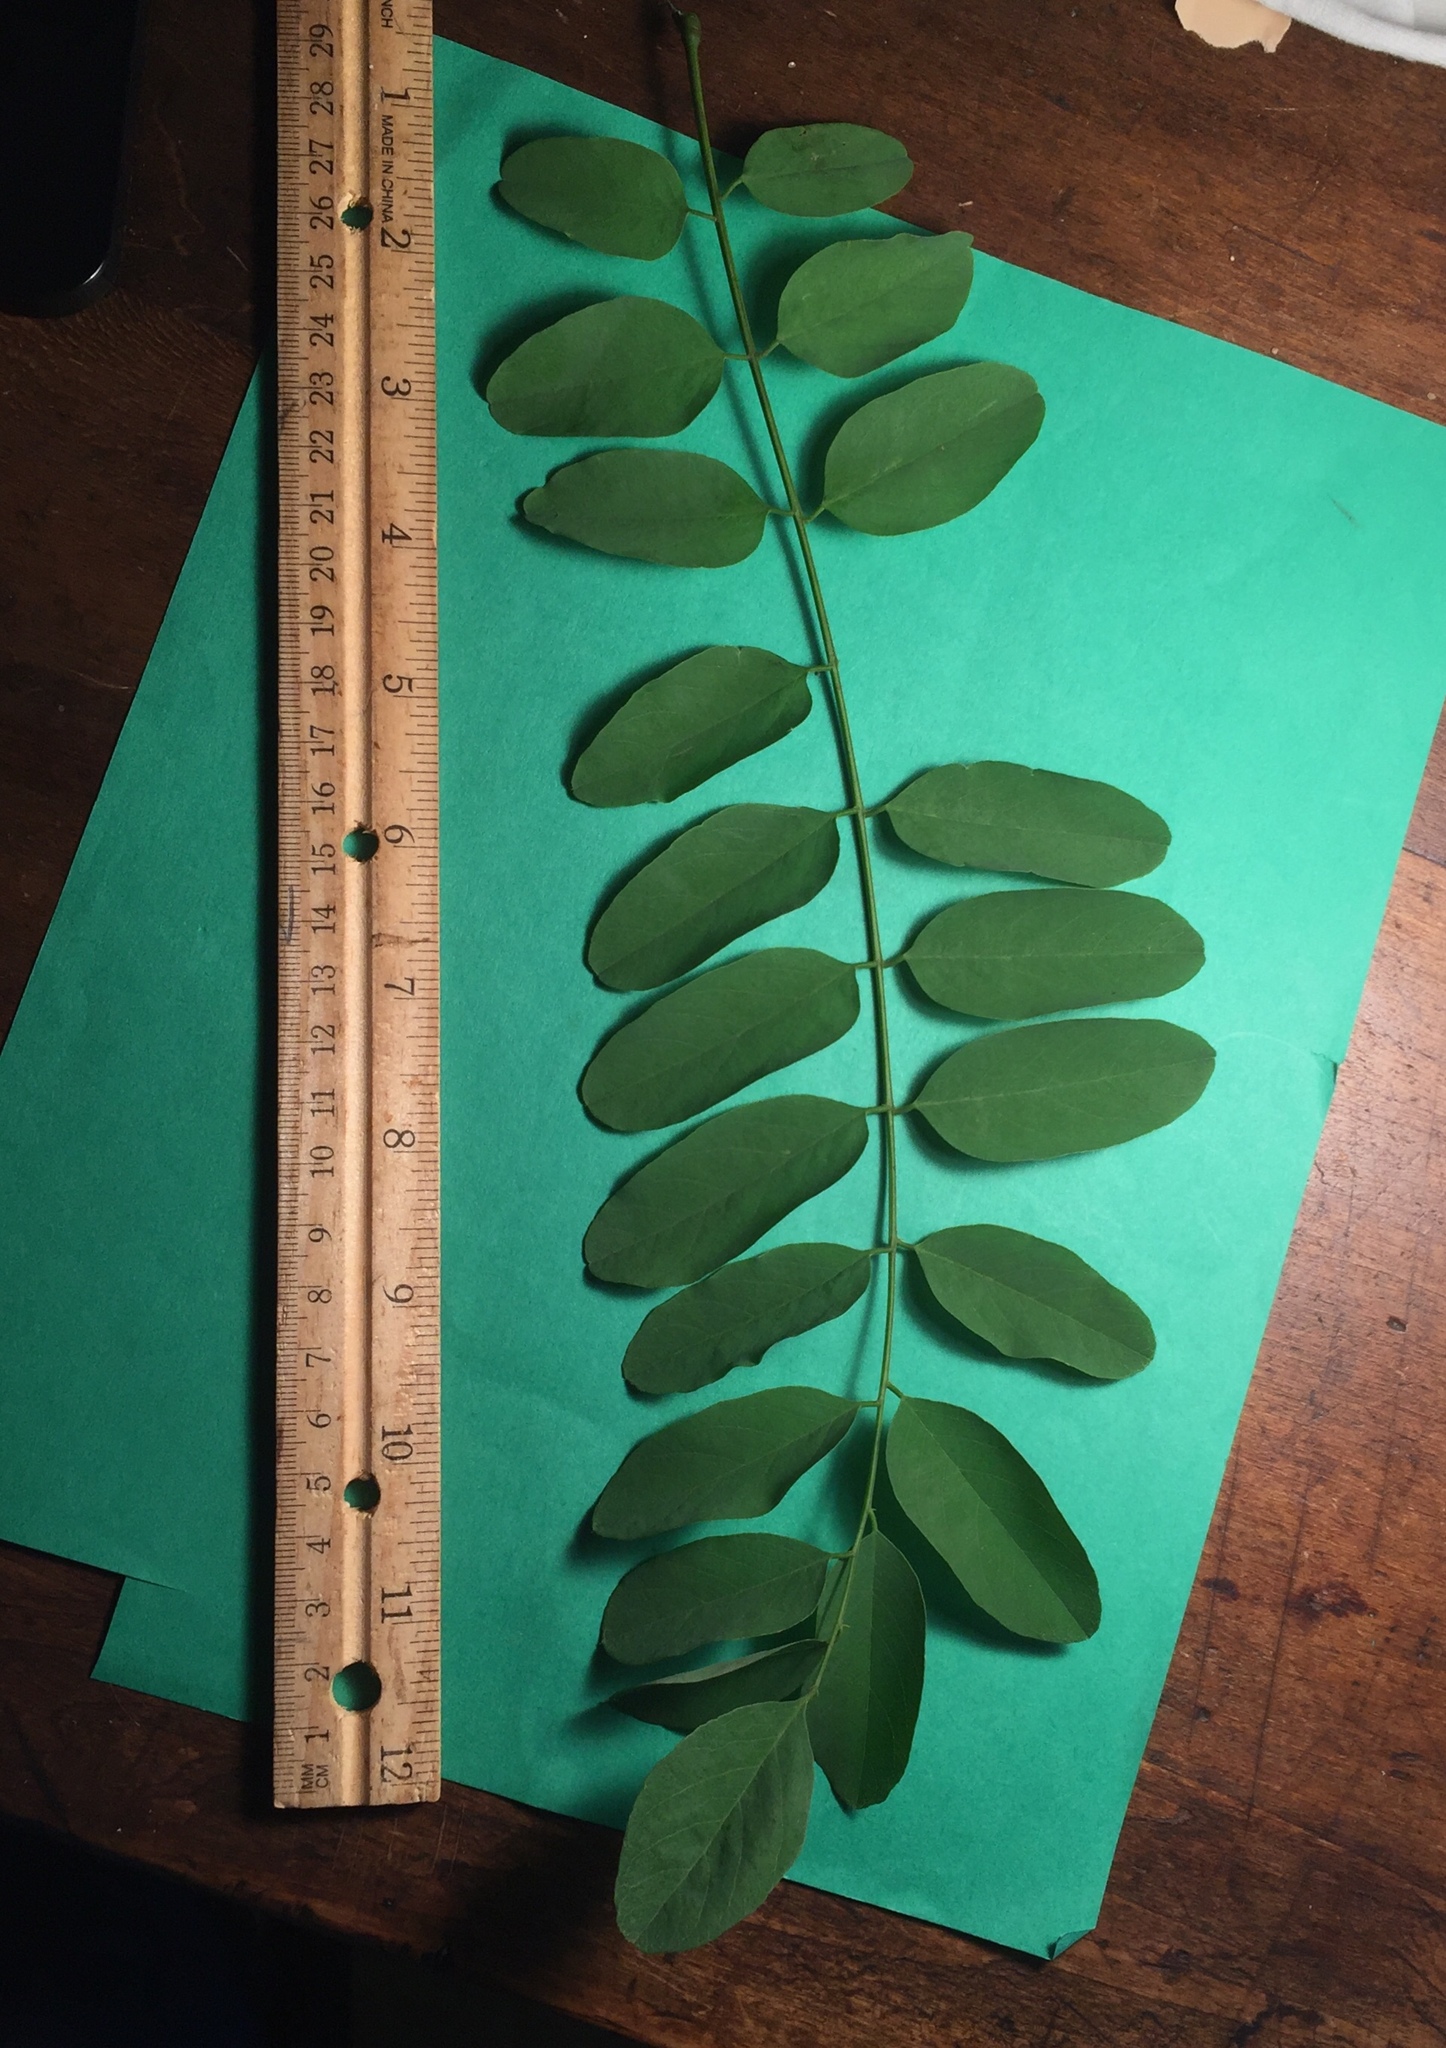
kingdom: Plantae
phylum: Tracheophyta
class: Magnoliopsida
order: Fabales
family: Fabaceae
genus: Robinia
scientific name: Robinia pseudoacacia
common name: Black locust
